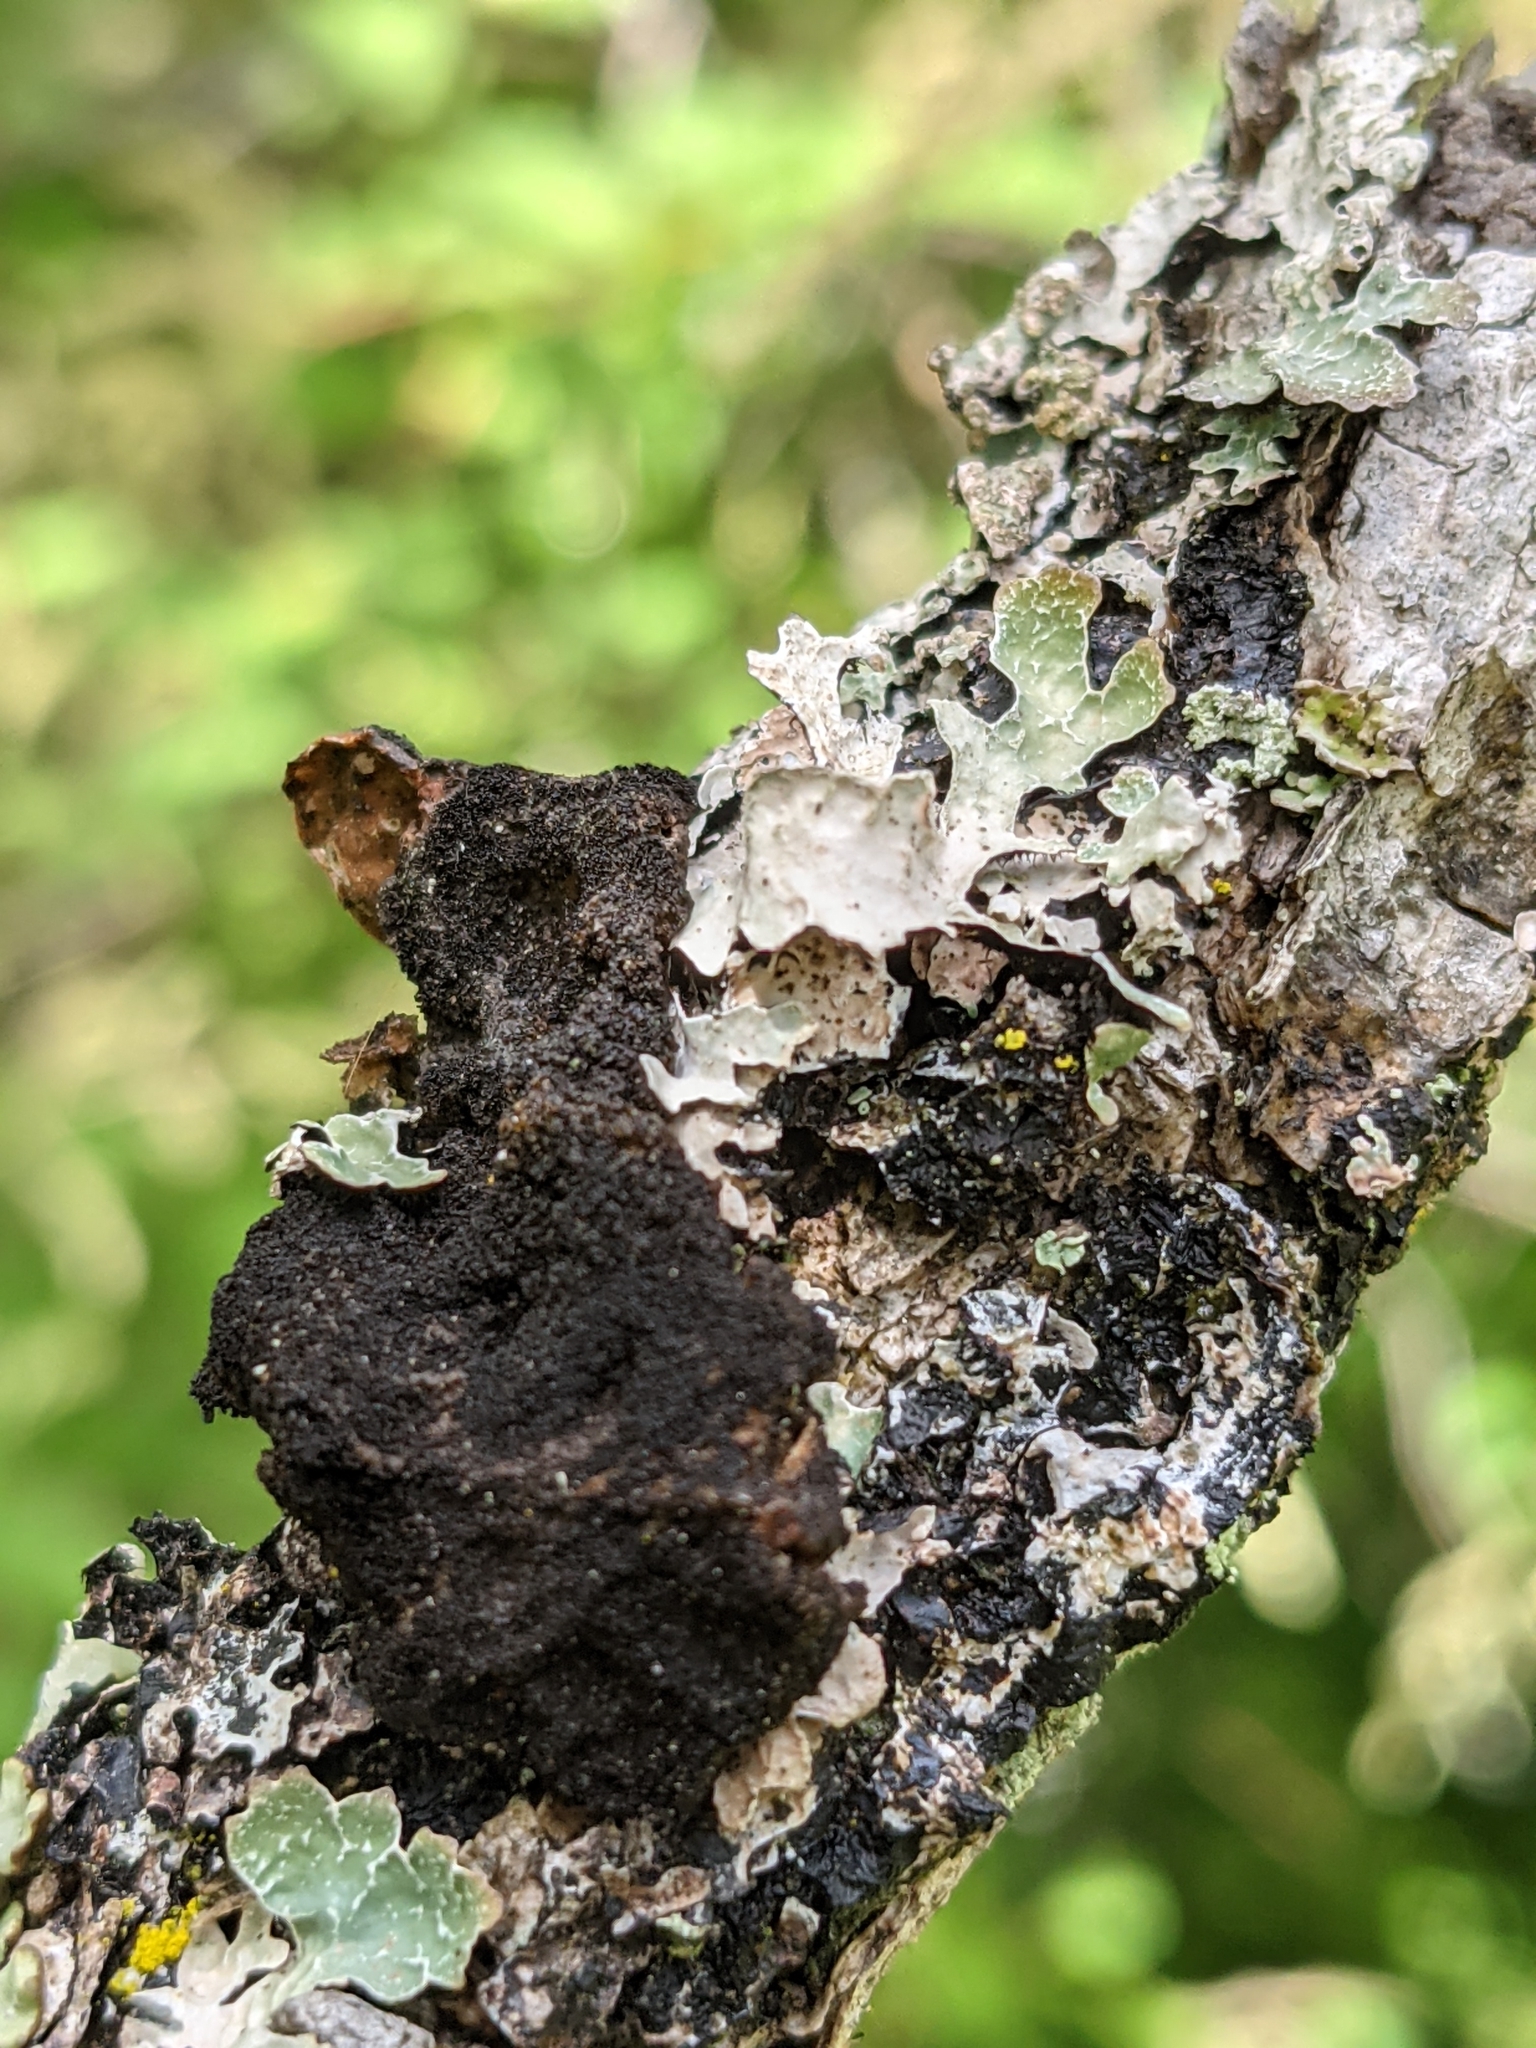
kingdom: Fungi
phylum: Ascomycota
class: Lecanoromycetes
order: Lecanorales
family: Parmeliaceae
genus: Parmelia
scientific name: Parmelia sulcata
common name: Netted shield lichen
